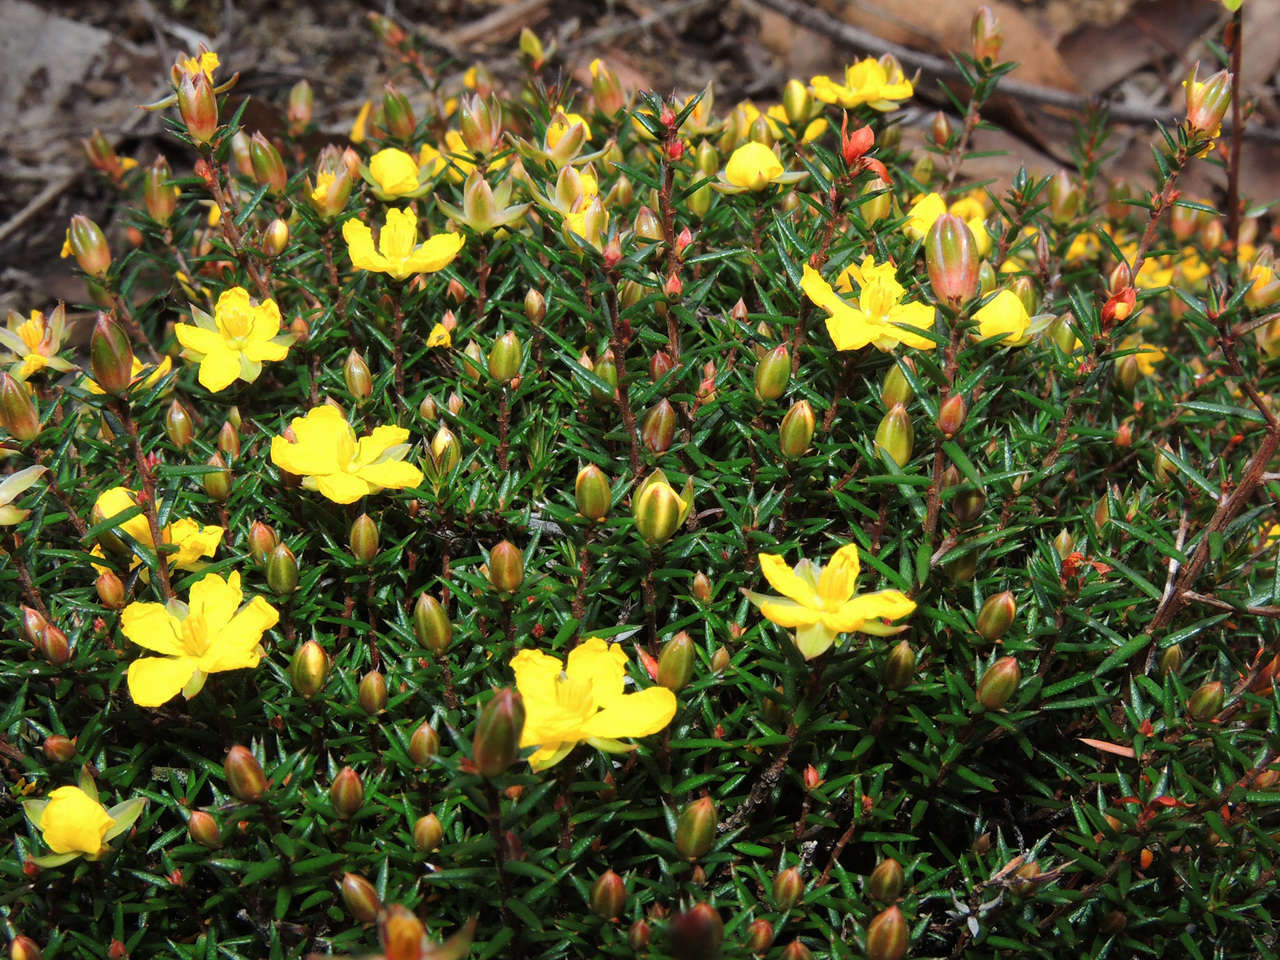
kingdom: Plantae
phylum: Tracheophyta
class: Magnoliopsida
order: Dilleniales
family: Dilleniaceae
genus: Hibbertia
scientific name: Hibbertia exutiacies
